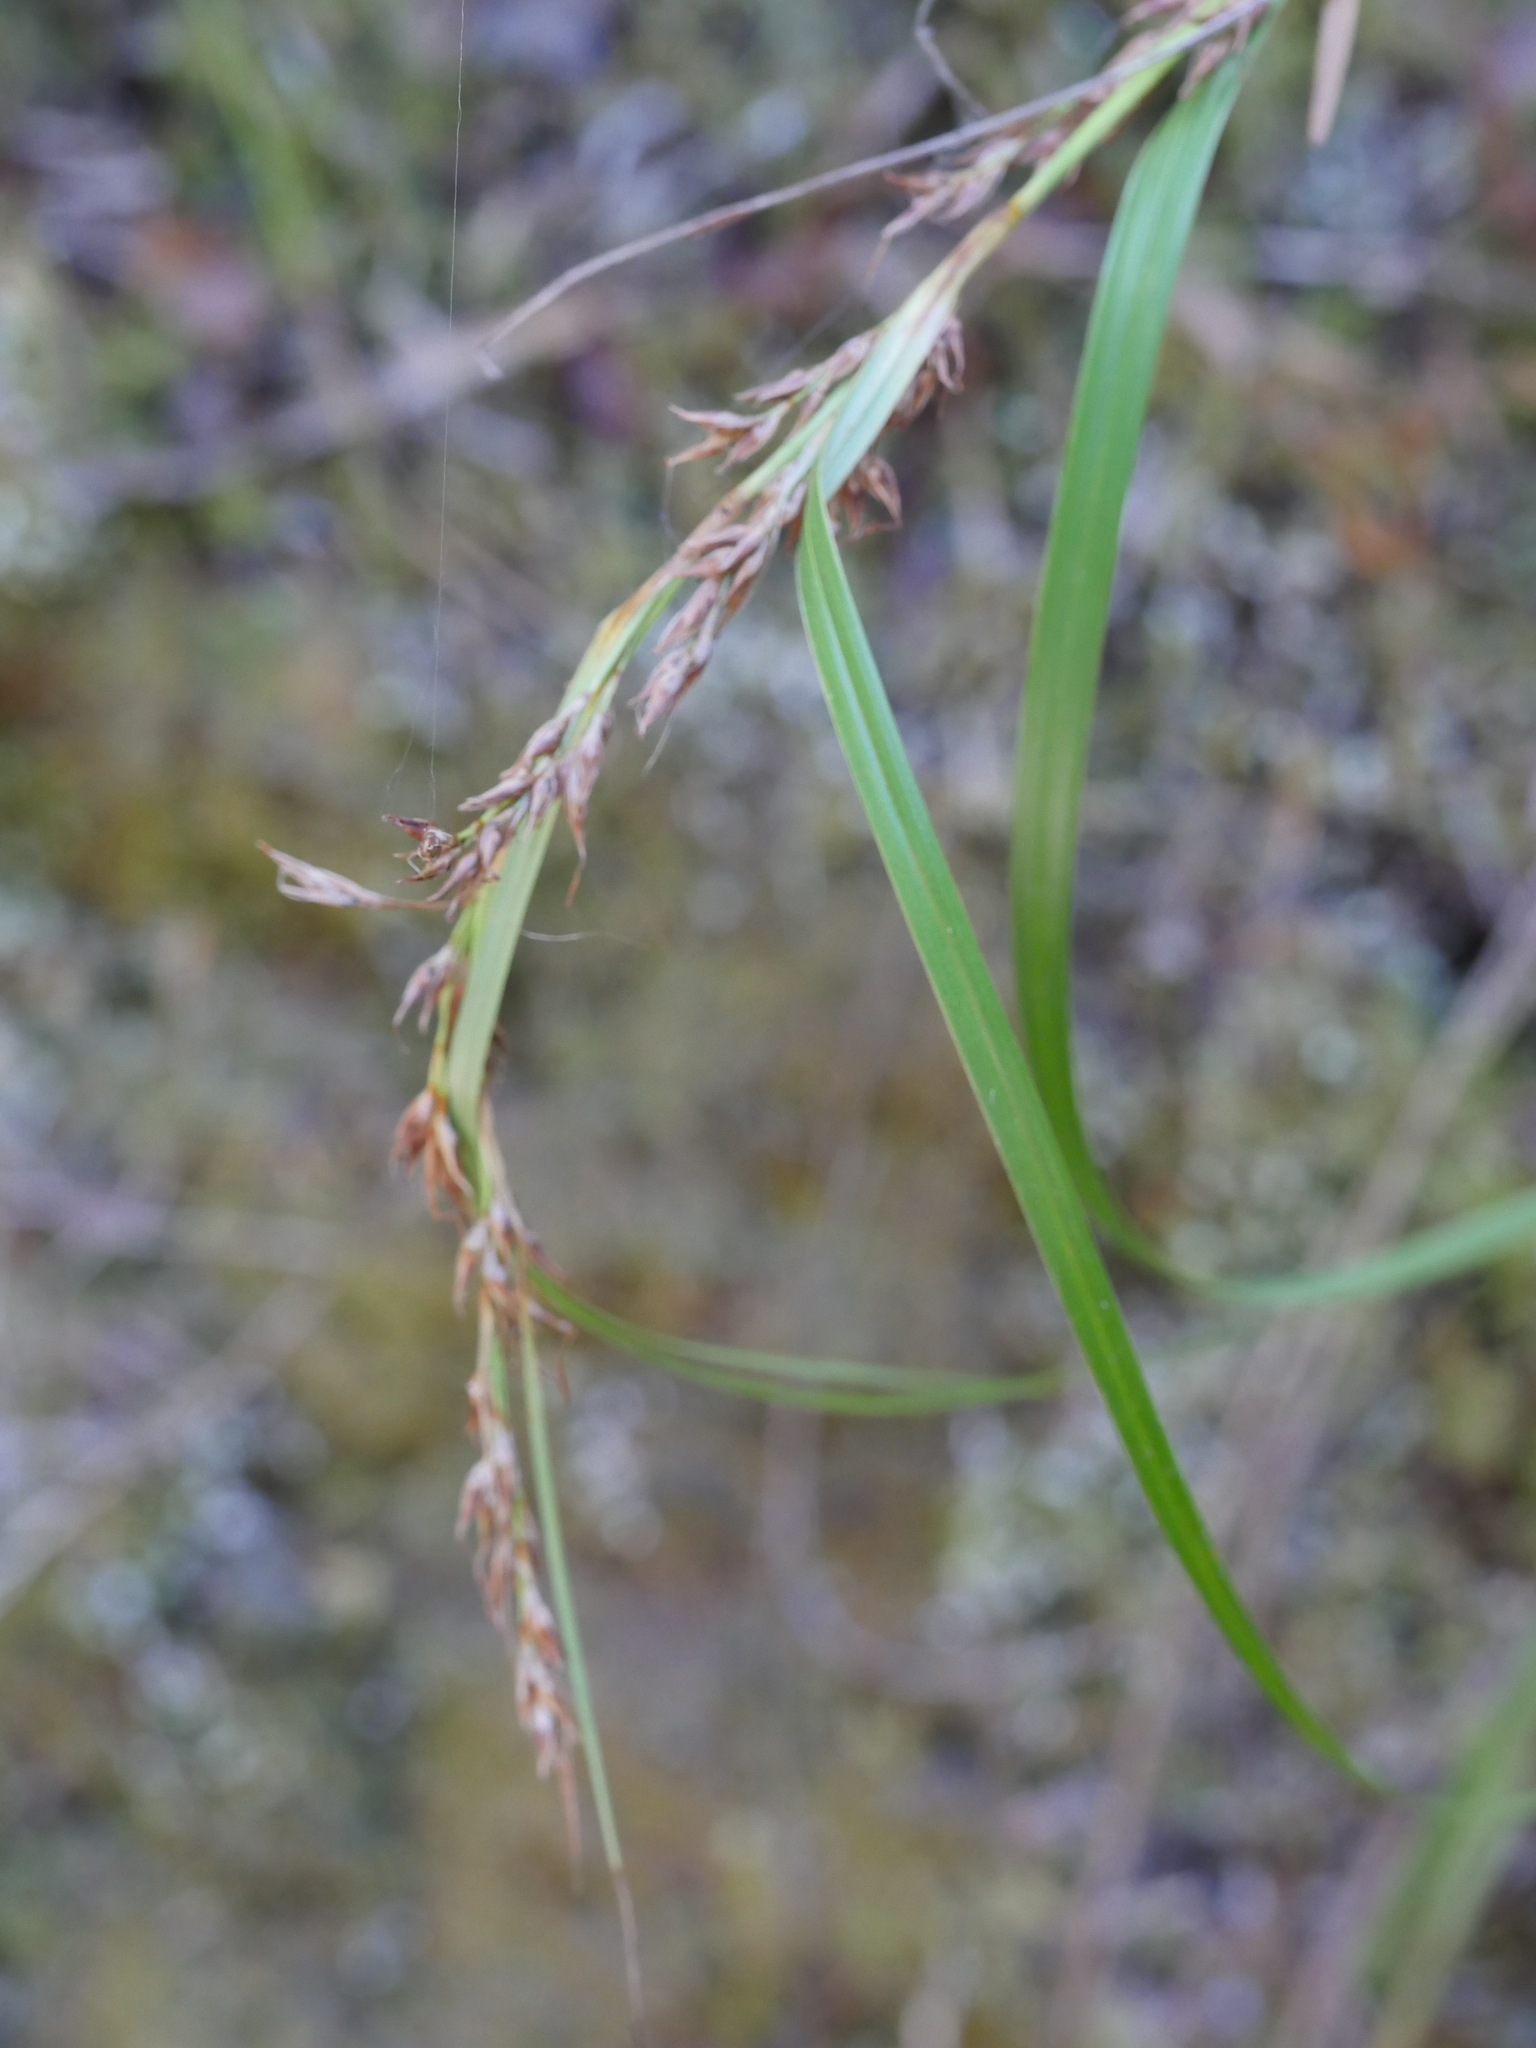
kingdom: Plantae
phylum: Tracheophyta
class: Liliopsida
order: Poales
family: Cyperaceae
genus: Morelotia
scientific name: Morelotia affinis
